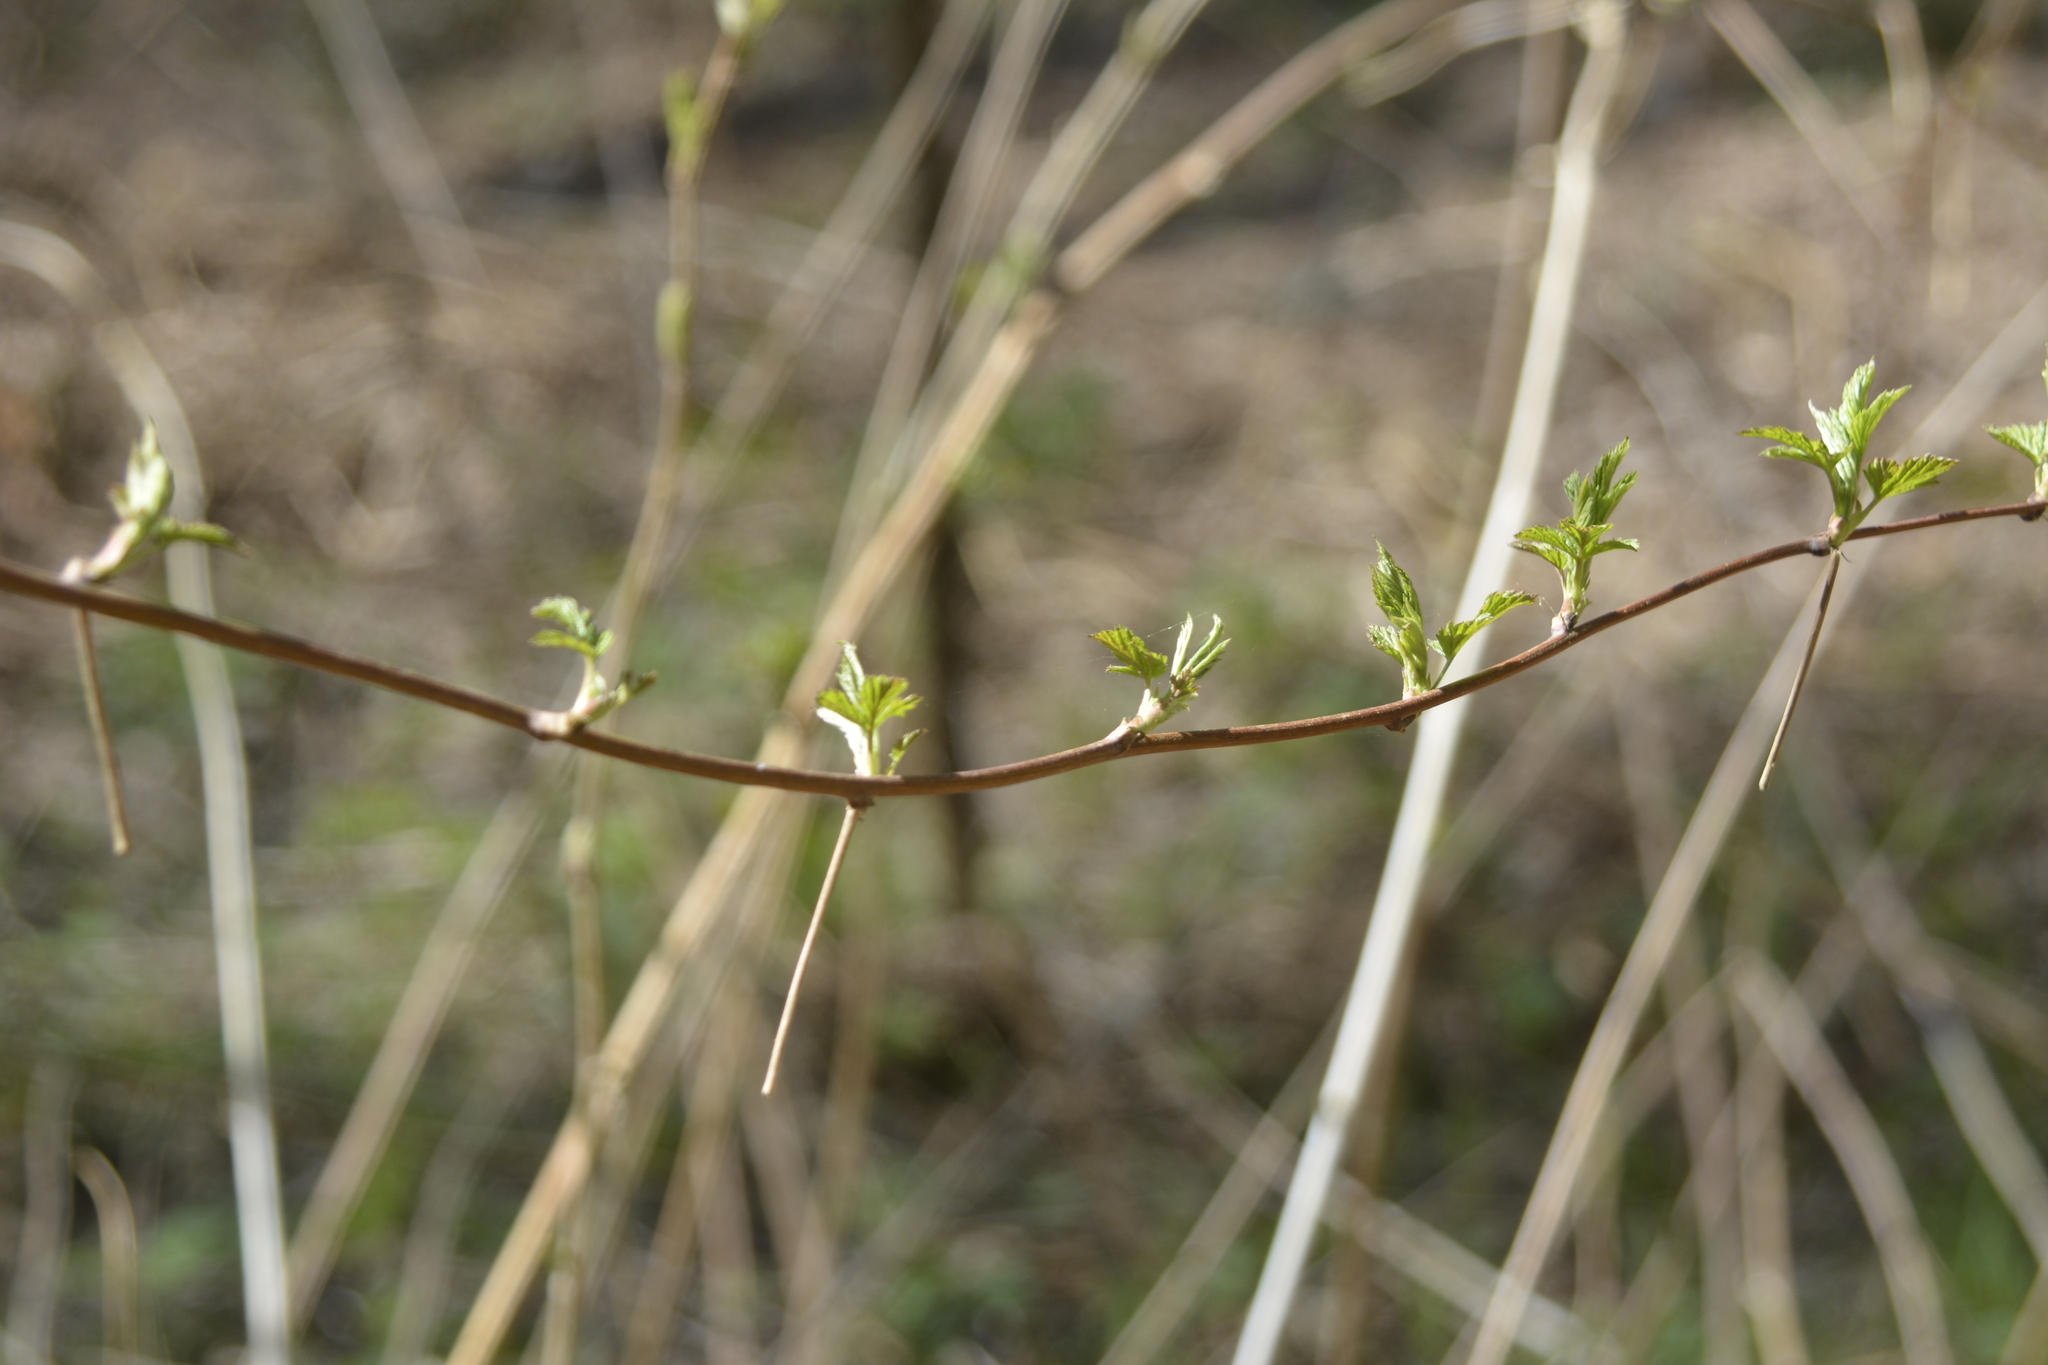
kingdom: Plantae
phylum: Tracheophyta
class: Magnoliopsida
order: Rosales
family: Rosaceae
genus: Rubus
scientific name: Rubus idaeus
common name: Raspberry
